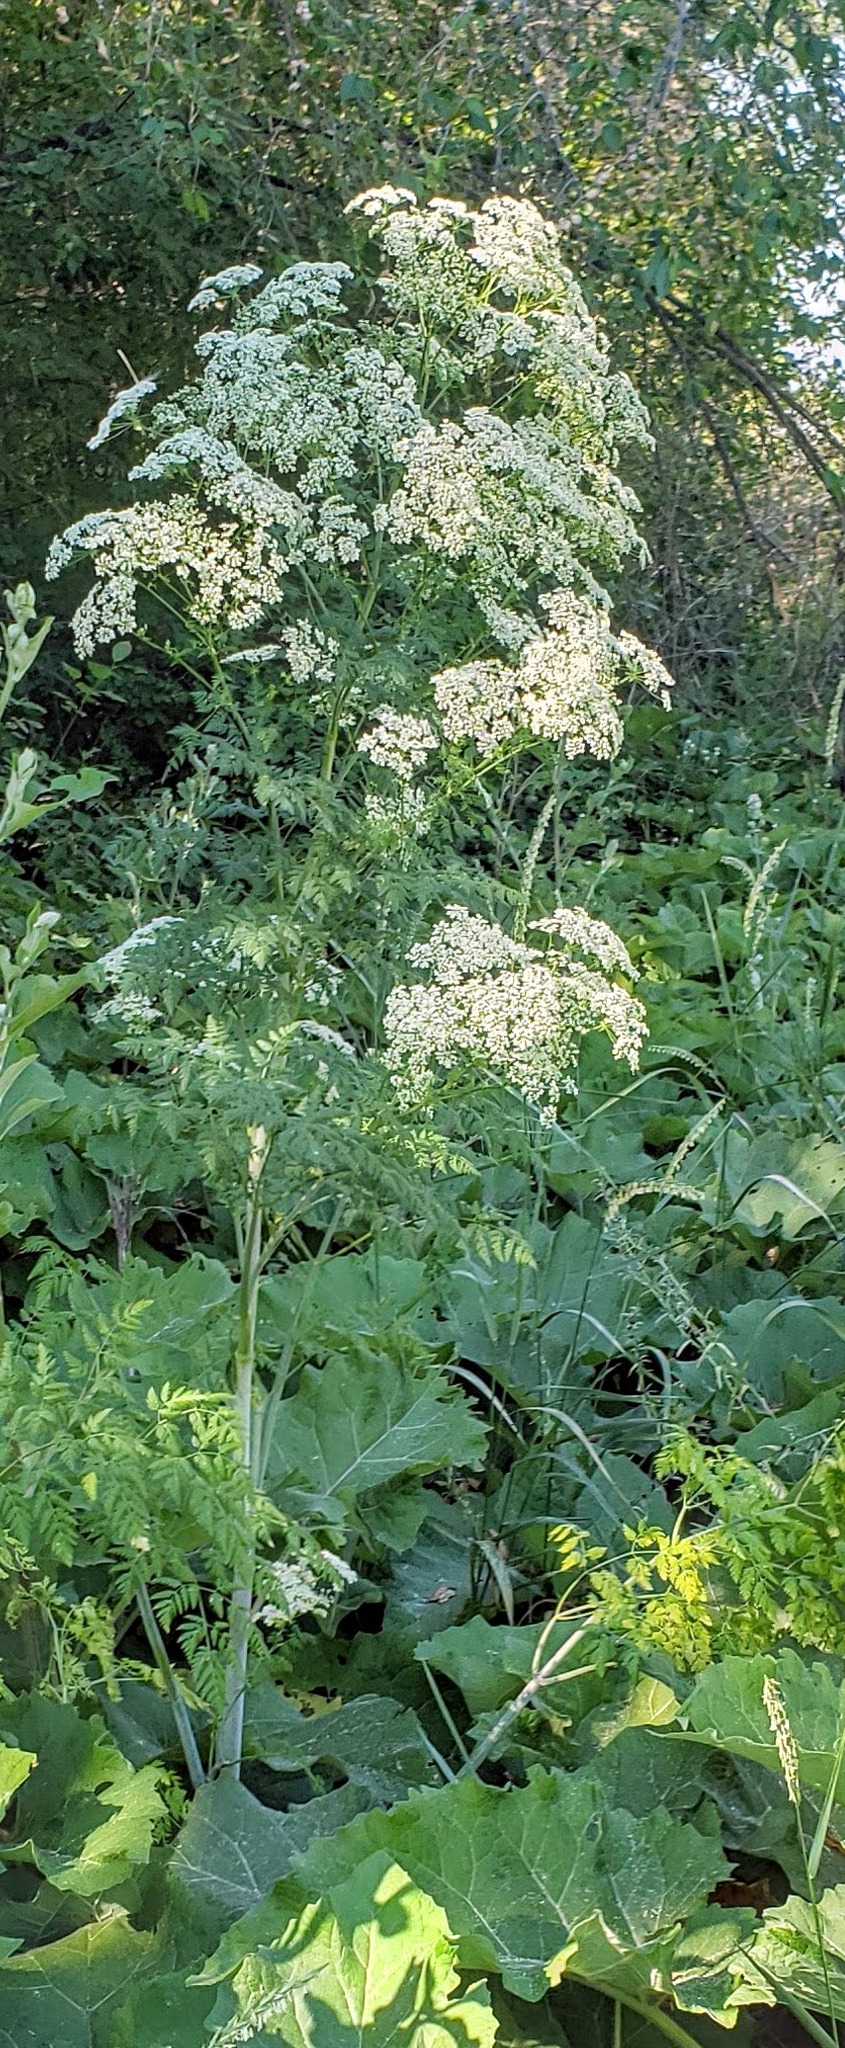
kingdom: Plantae
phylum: Tracheophyta
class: Magnoliopsida
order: Apiales
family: Apiaceae
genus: Conium
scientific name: Conium maculatum
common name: Hemlock
